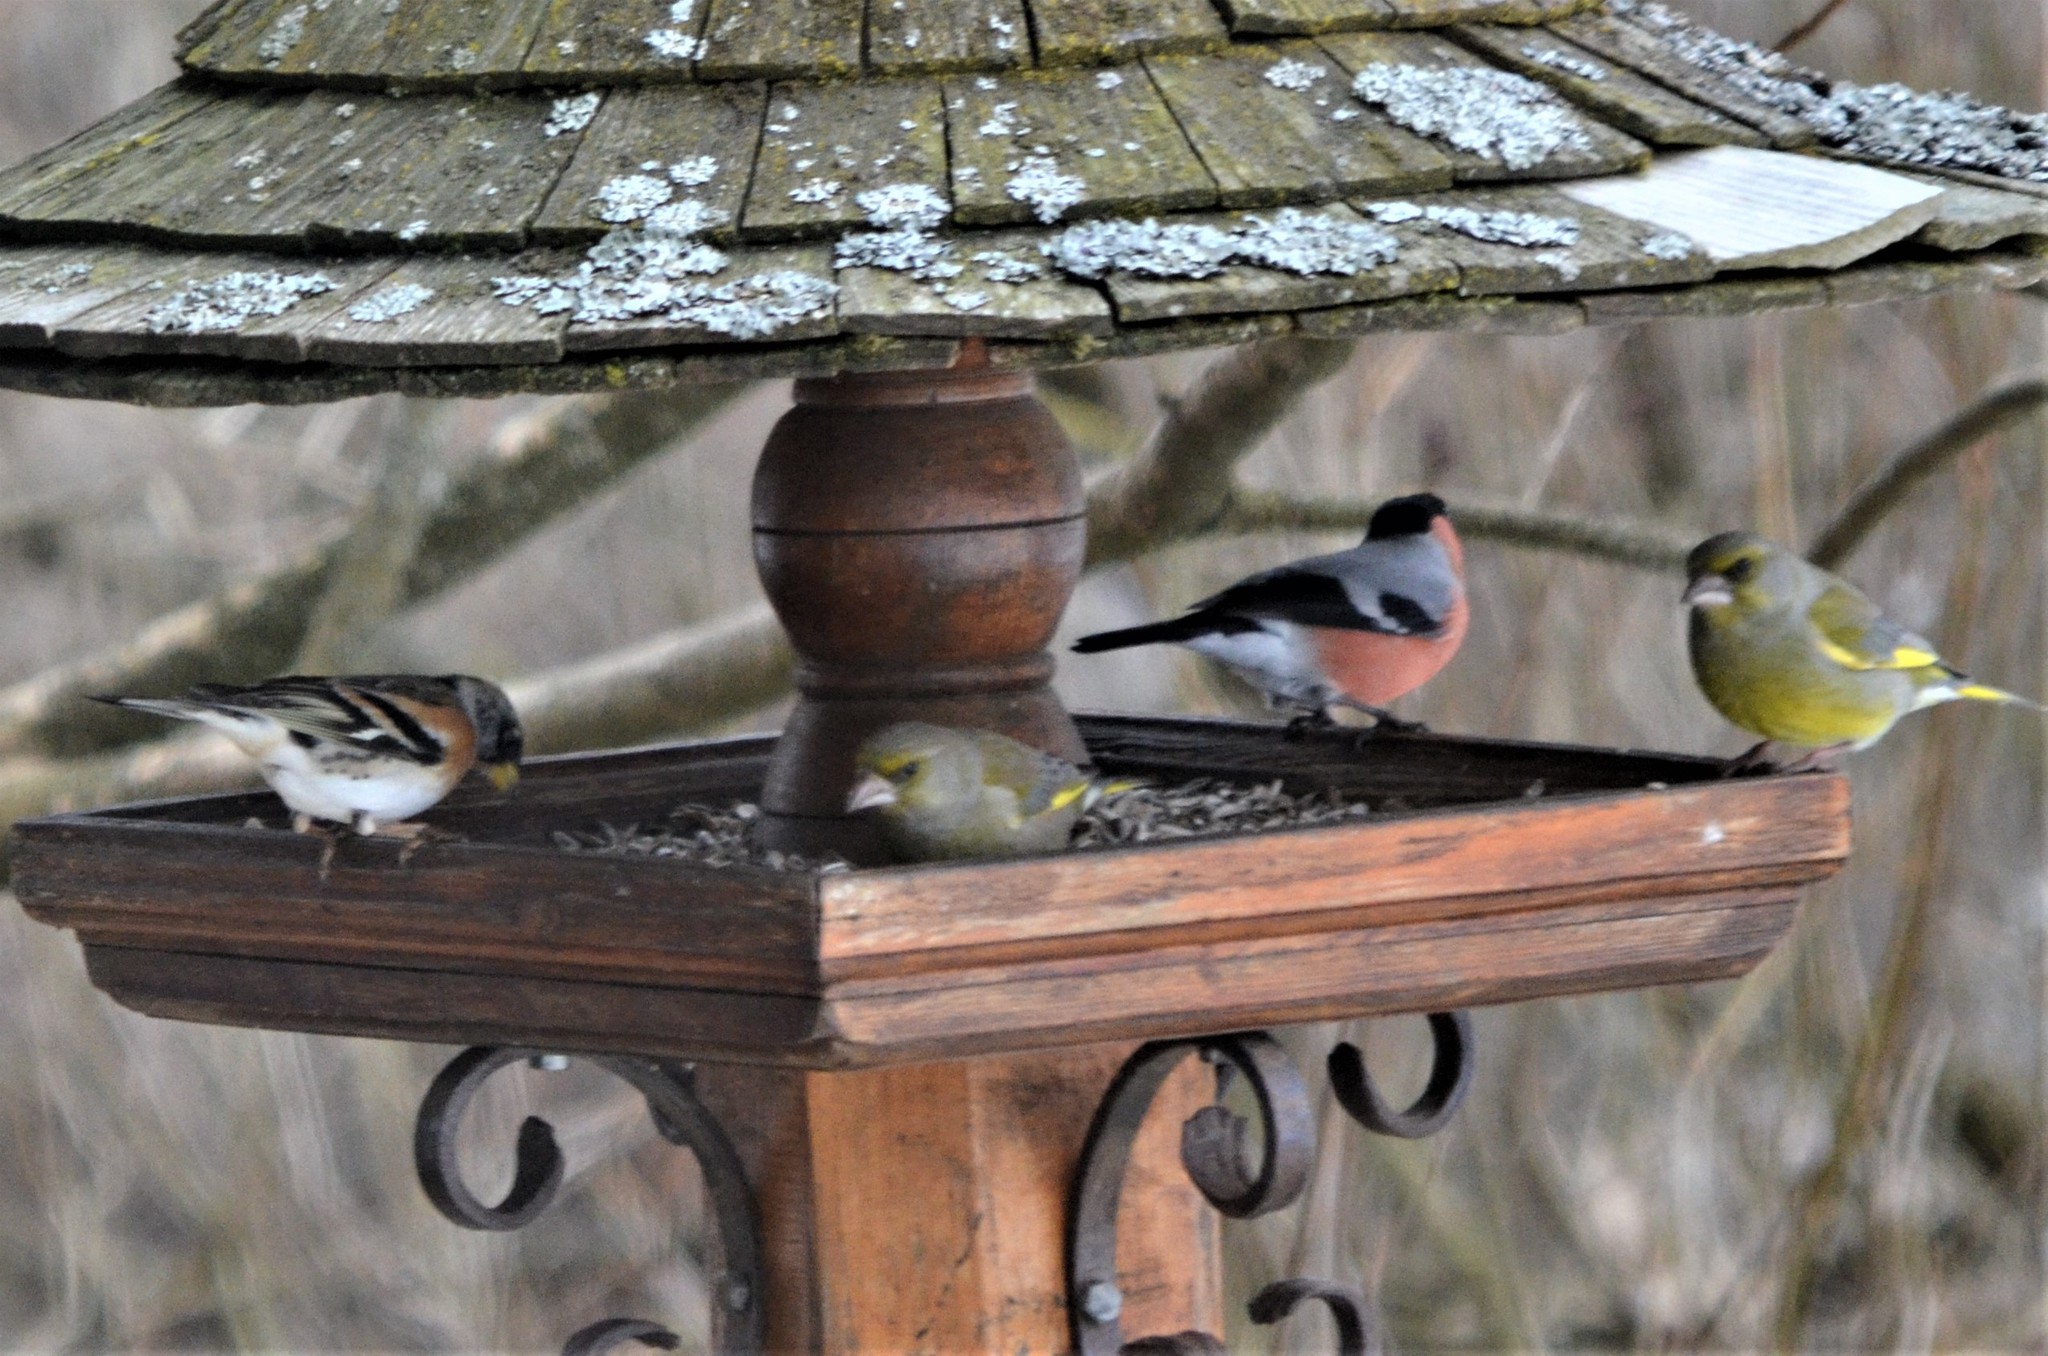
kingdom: Animalia
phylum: Chordata
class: Aves
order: Passeriformes
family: Fringillidae
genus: Pyrrhula
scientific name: Pyrrhula pyrrhula
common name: Eurasian bullfinch
